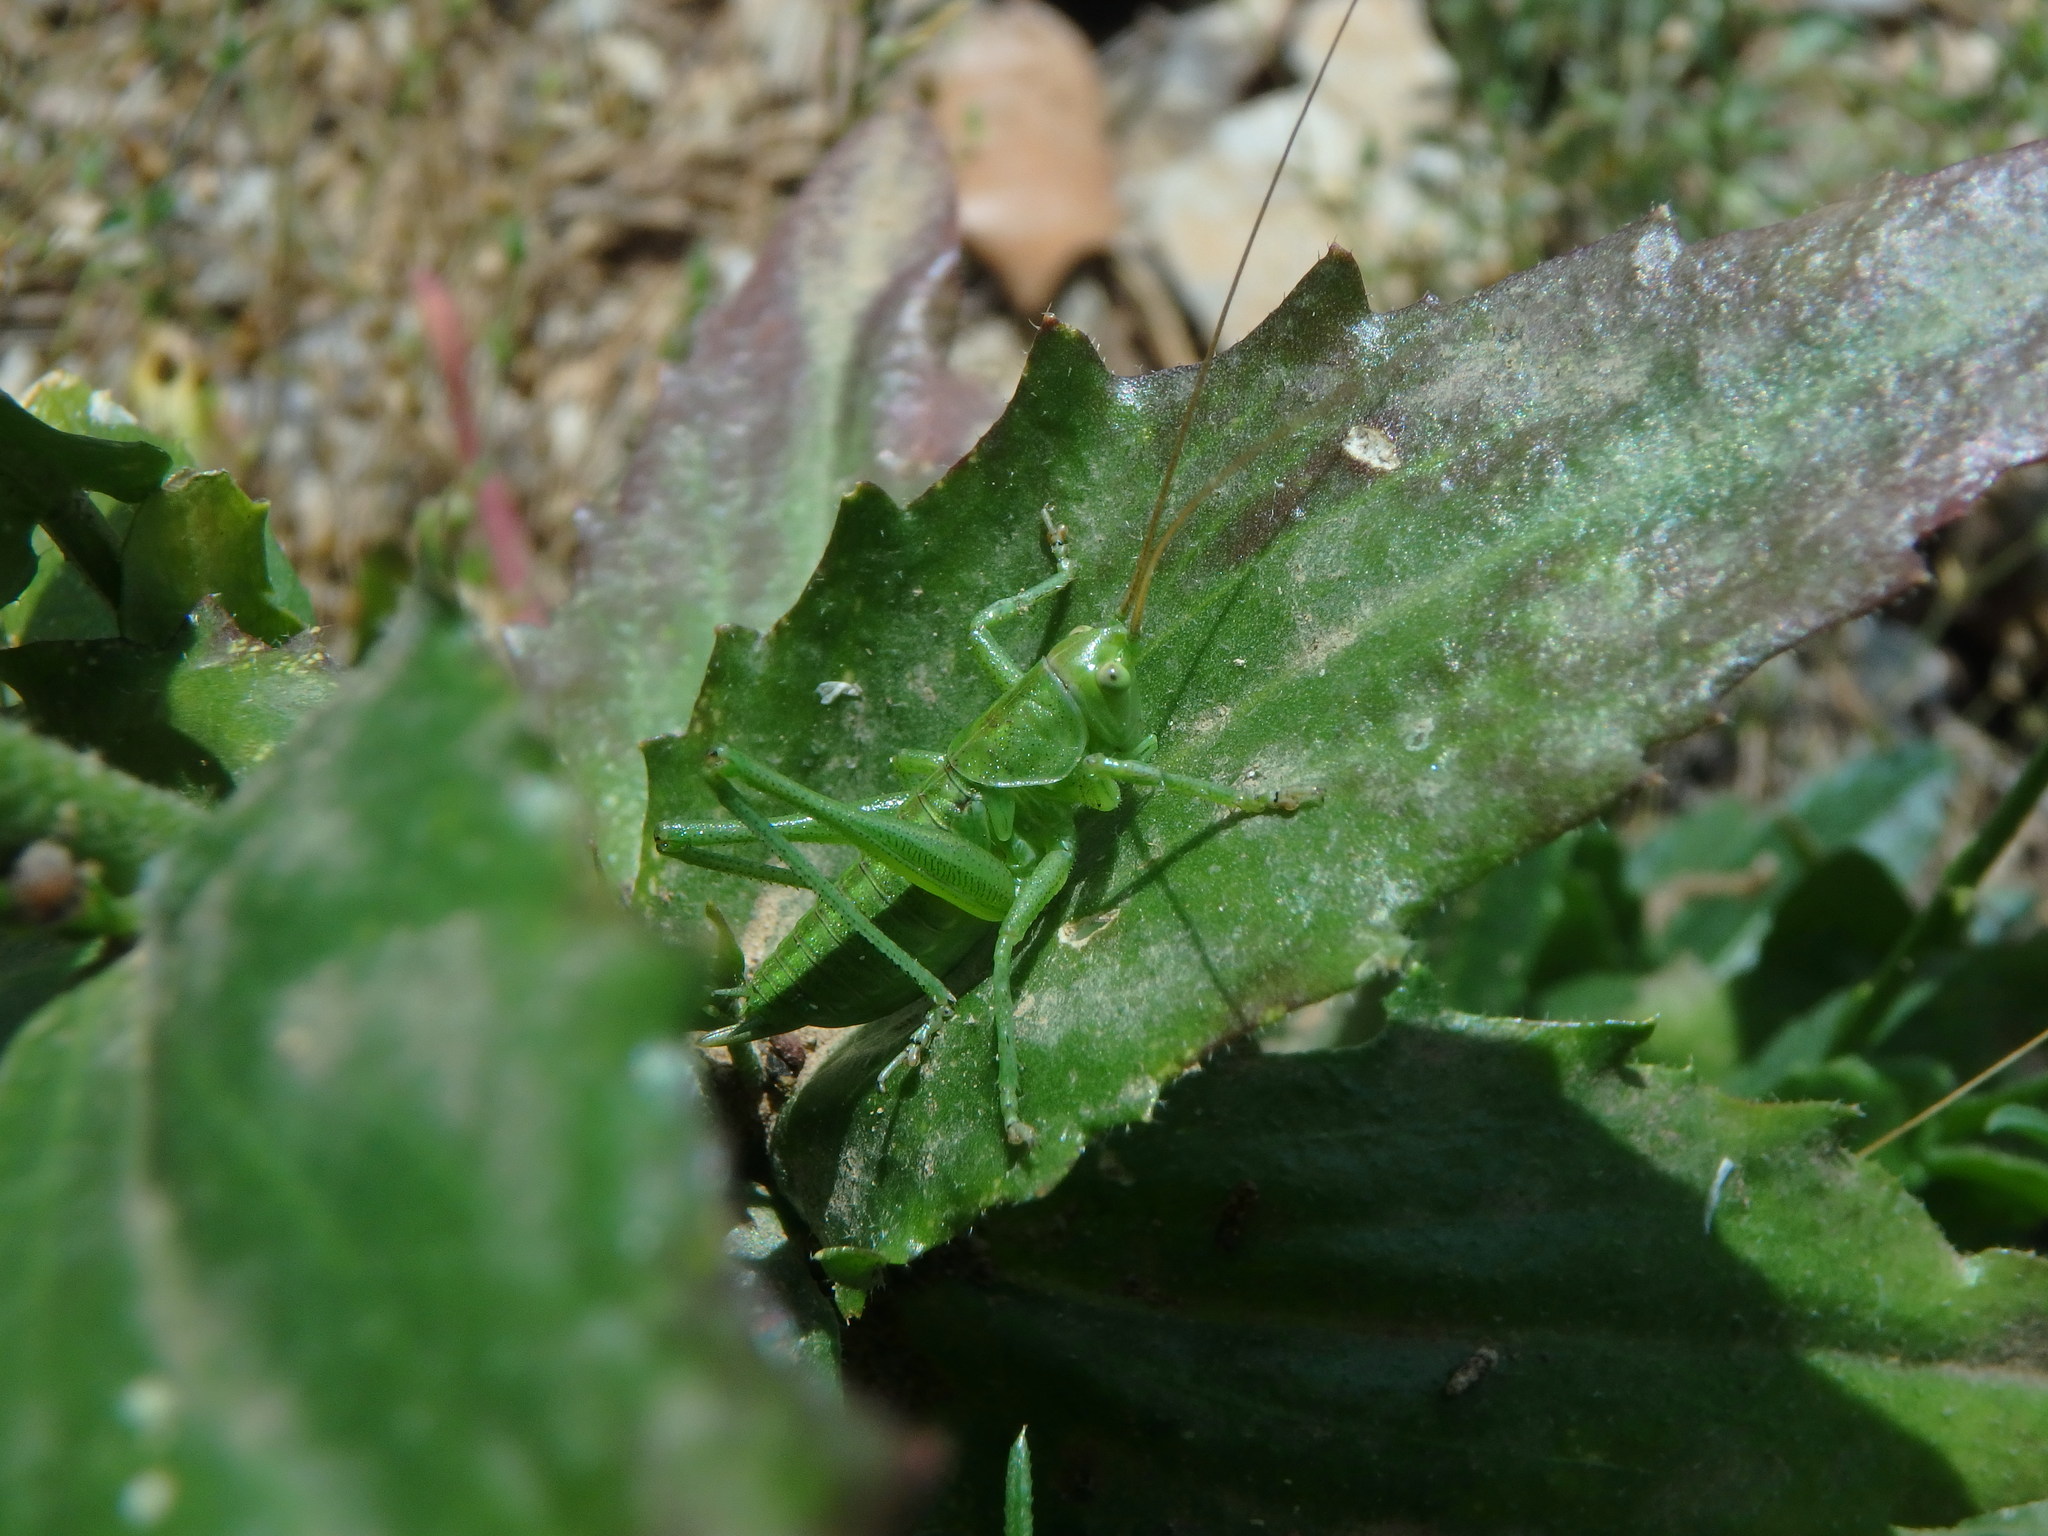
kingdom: Animalia
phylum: Arthropoda
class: Insecta
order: Orthoptera
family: Tettigoniidae
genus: Tettigonia
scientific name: Tettigonia viridissima
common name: Great green bush-cricket
